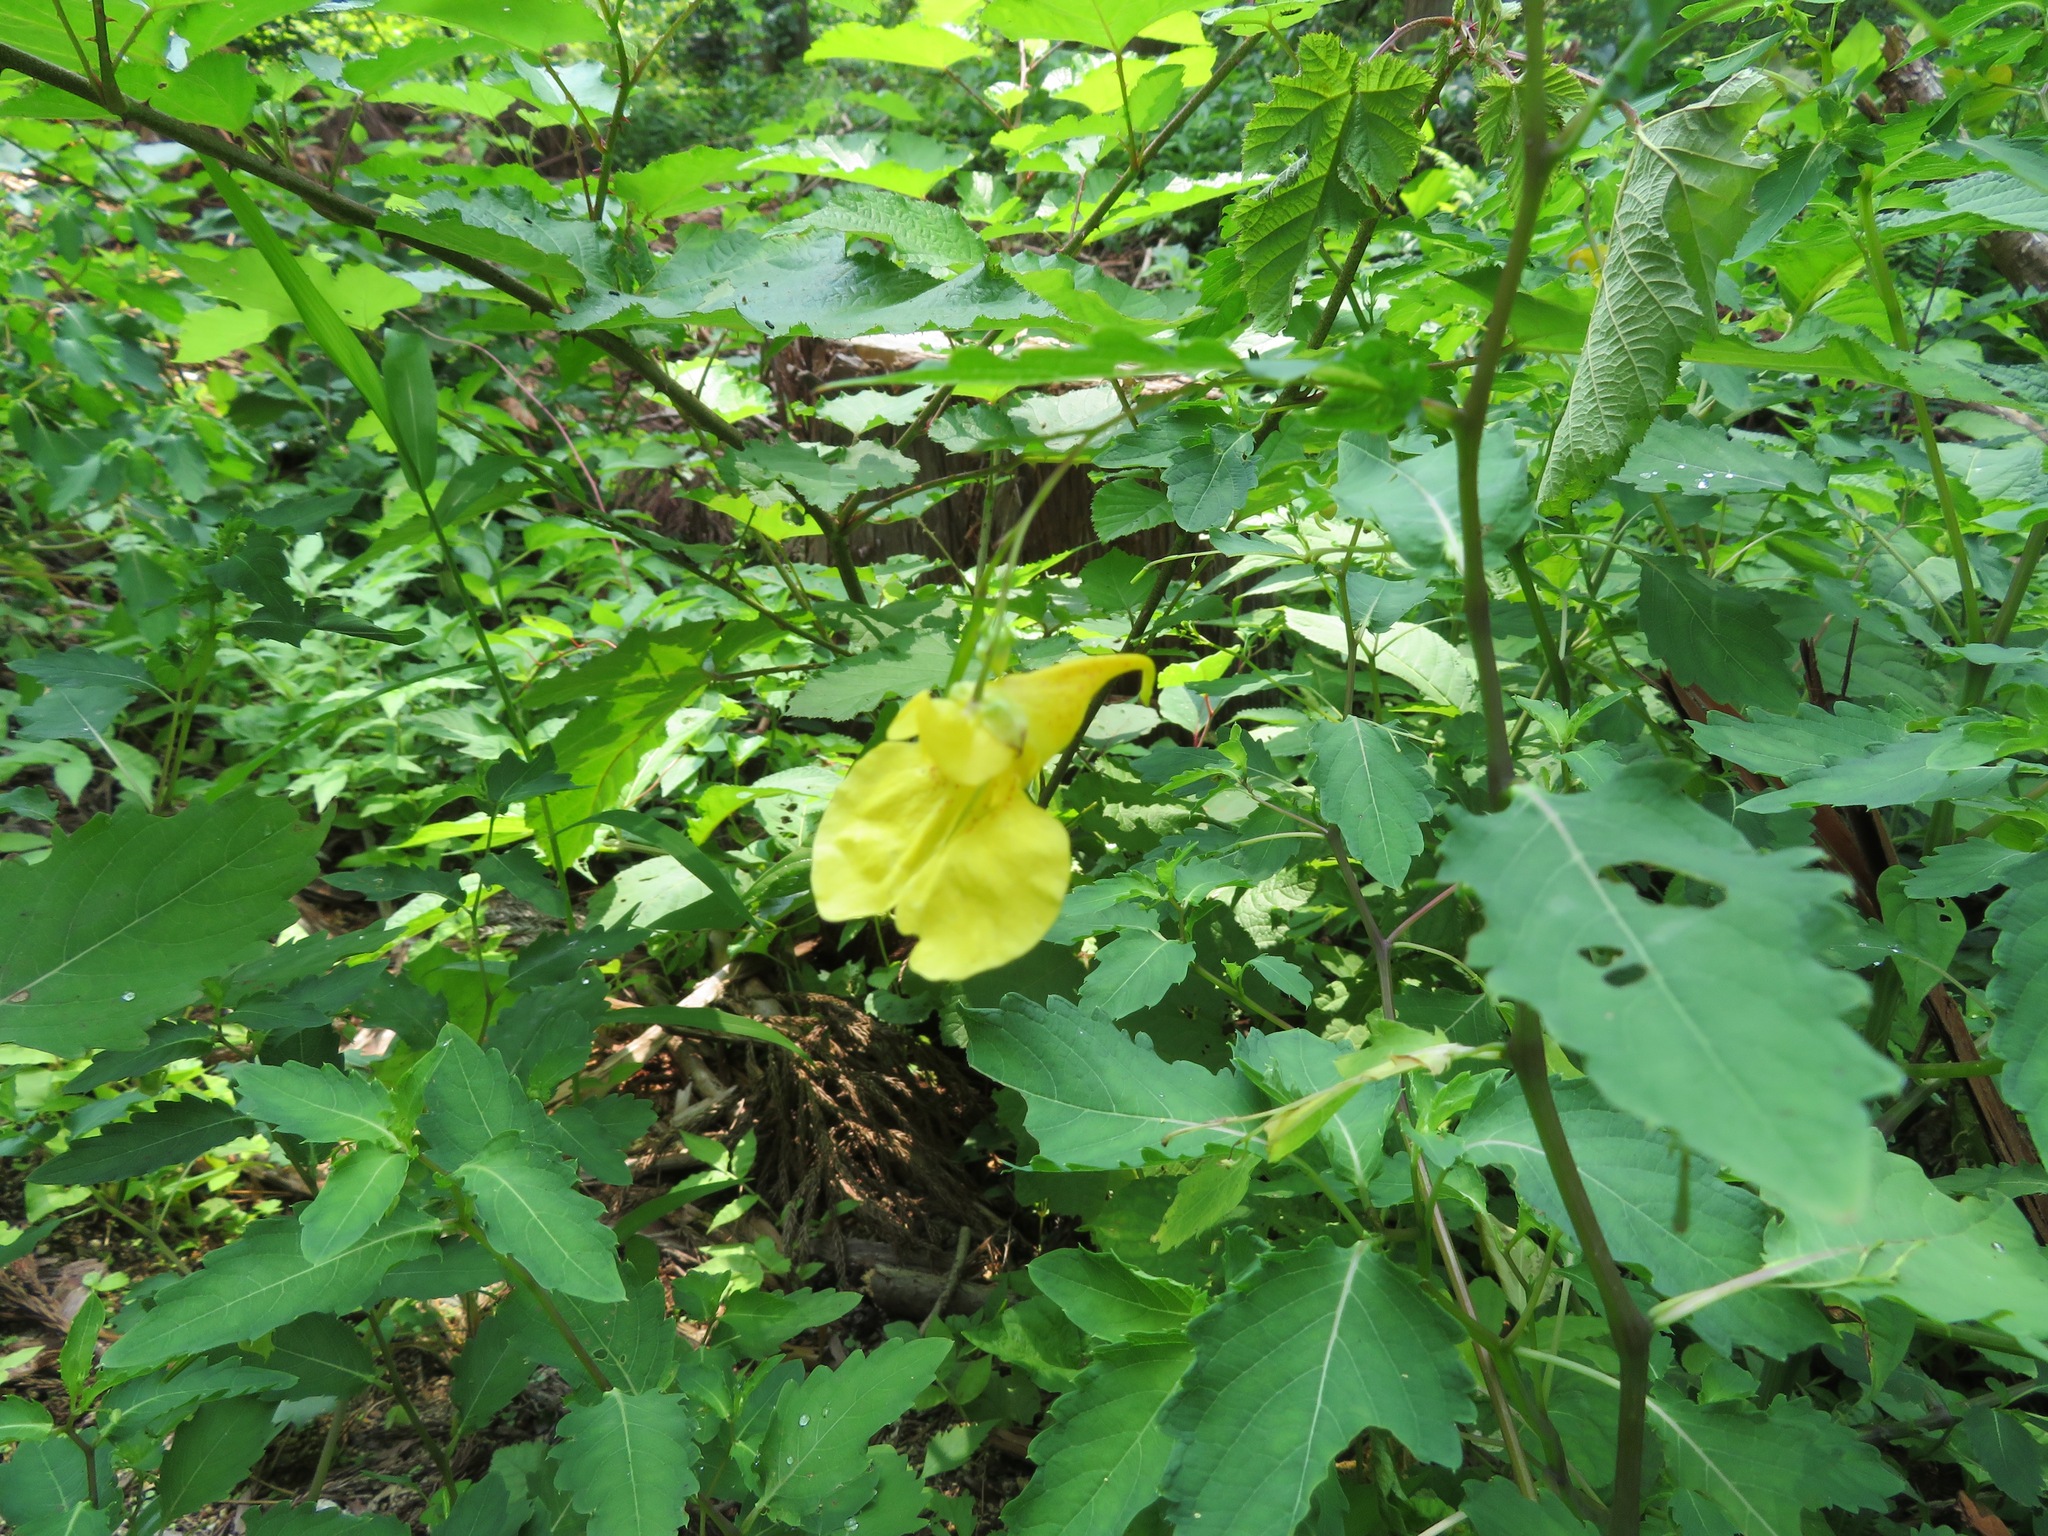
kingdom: Plantae
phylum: Tracheophyta
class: Magnoliopsida
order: Ericales
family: Balsaminaceae
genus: Impatiens
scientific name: Impatiens noli-tangere
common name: Touch-me-not balsam
